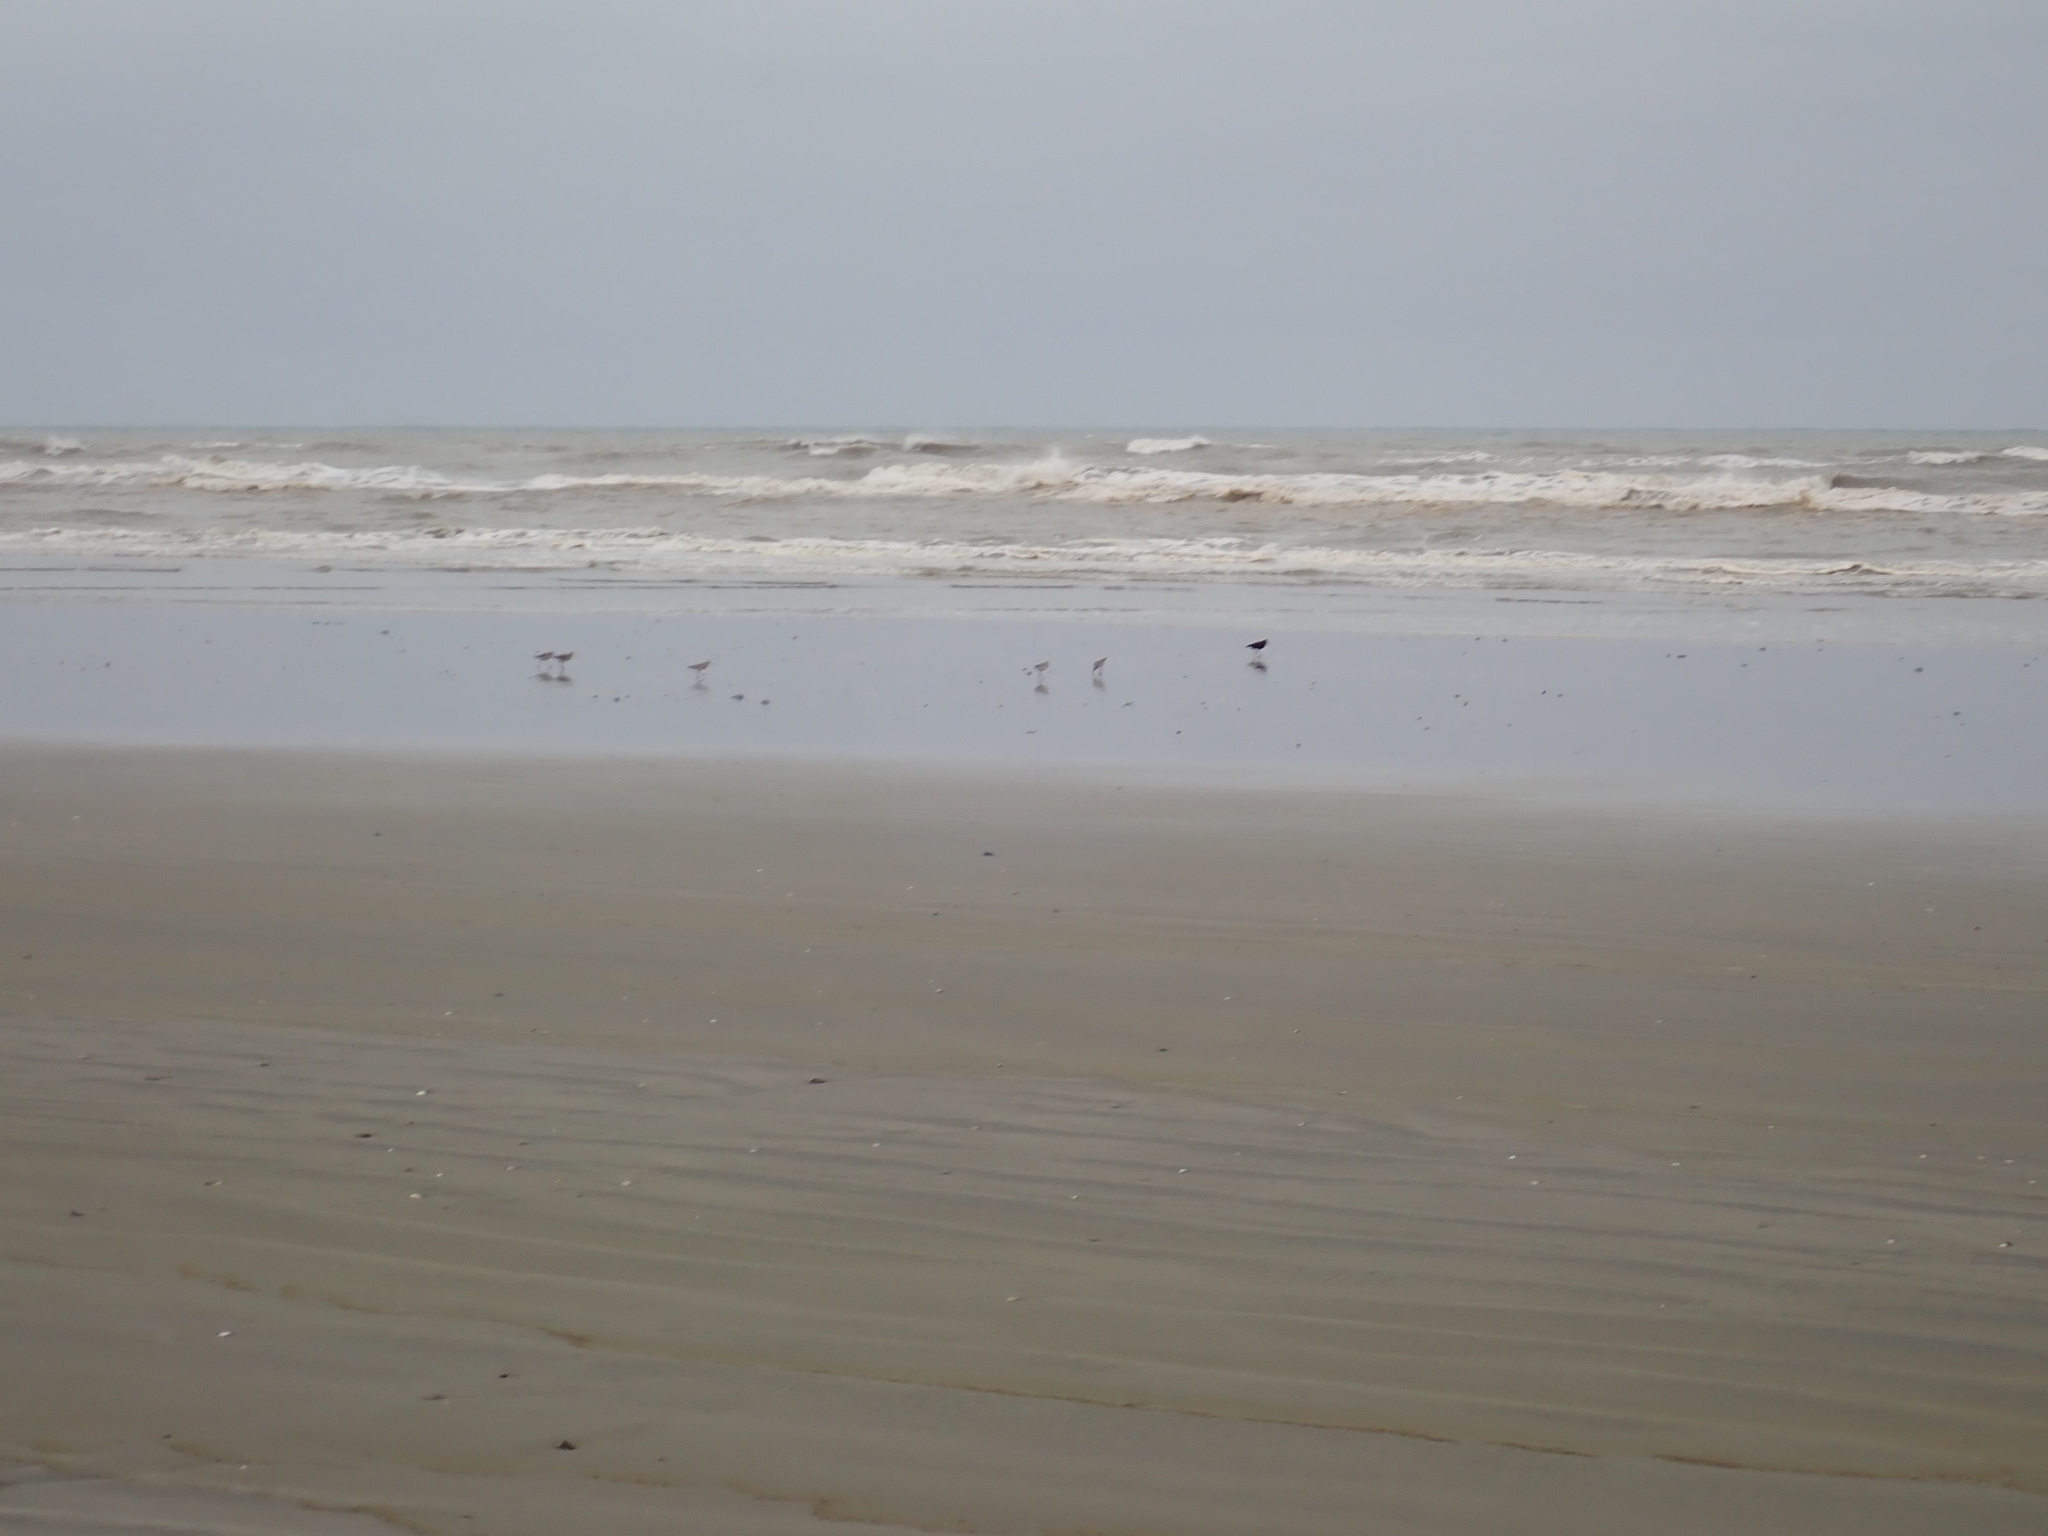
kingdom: Animalia
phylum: Chordata
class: Aves
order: Charadriiformes
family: Scolopacidae
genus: Limosa
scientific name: Limosa lapponica
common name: Bar-tailed godwit
